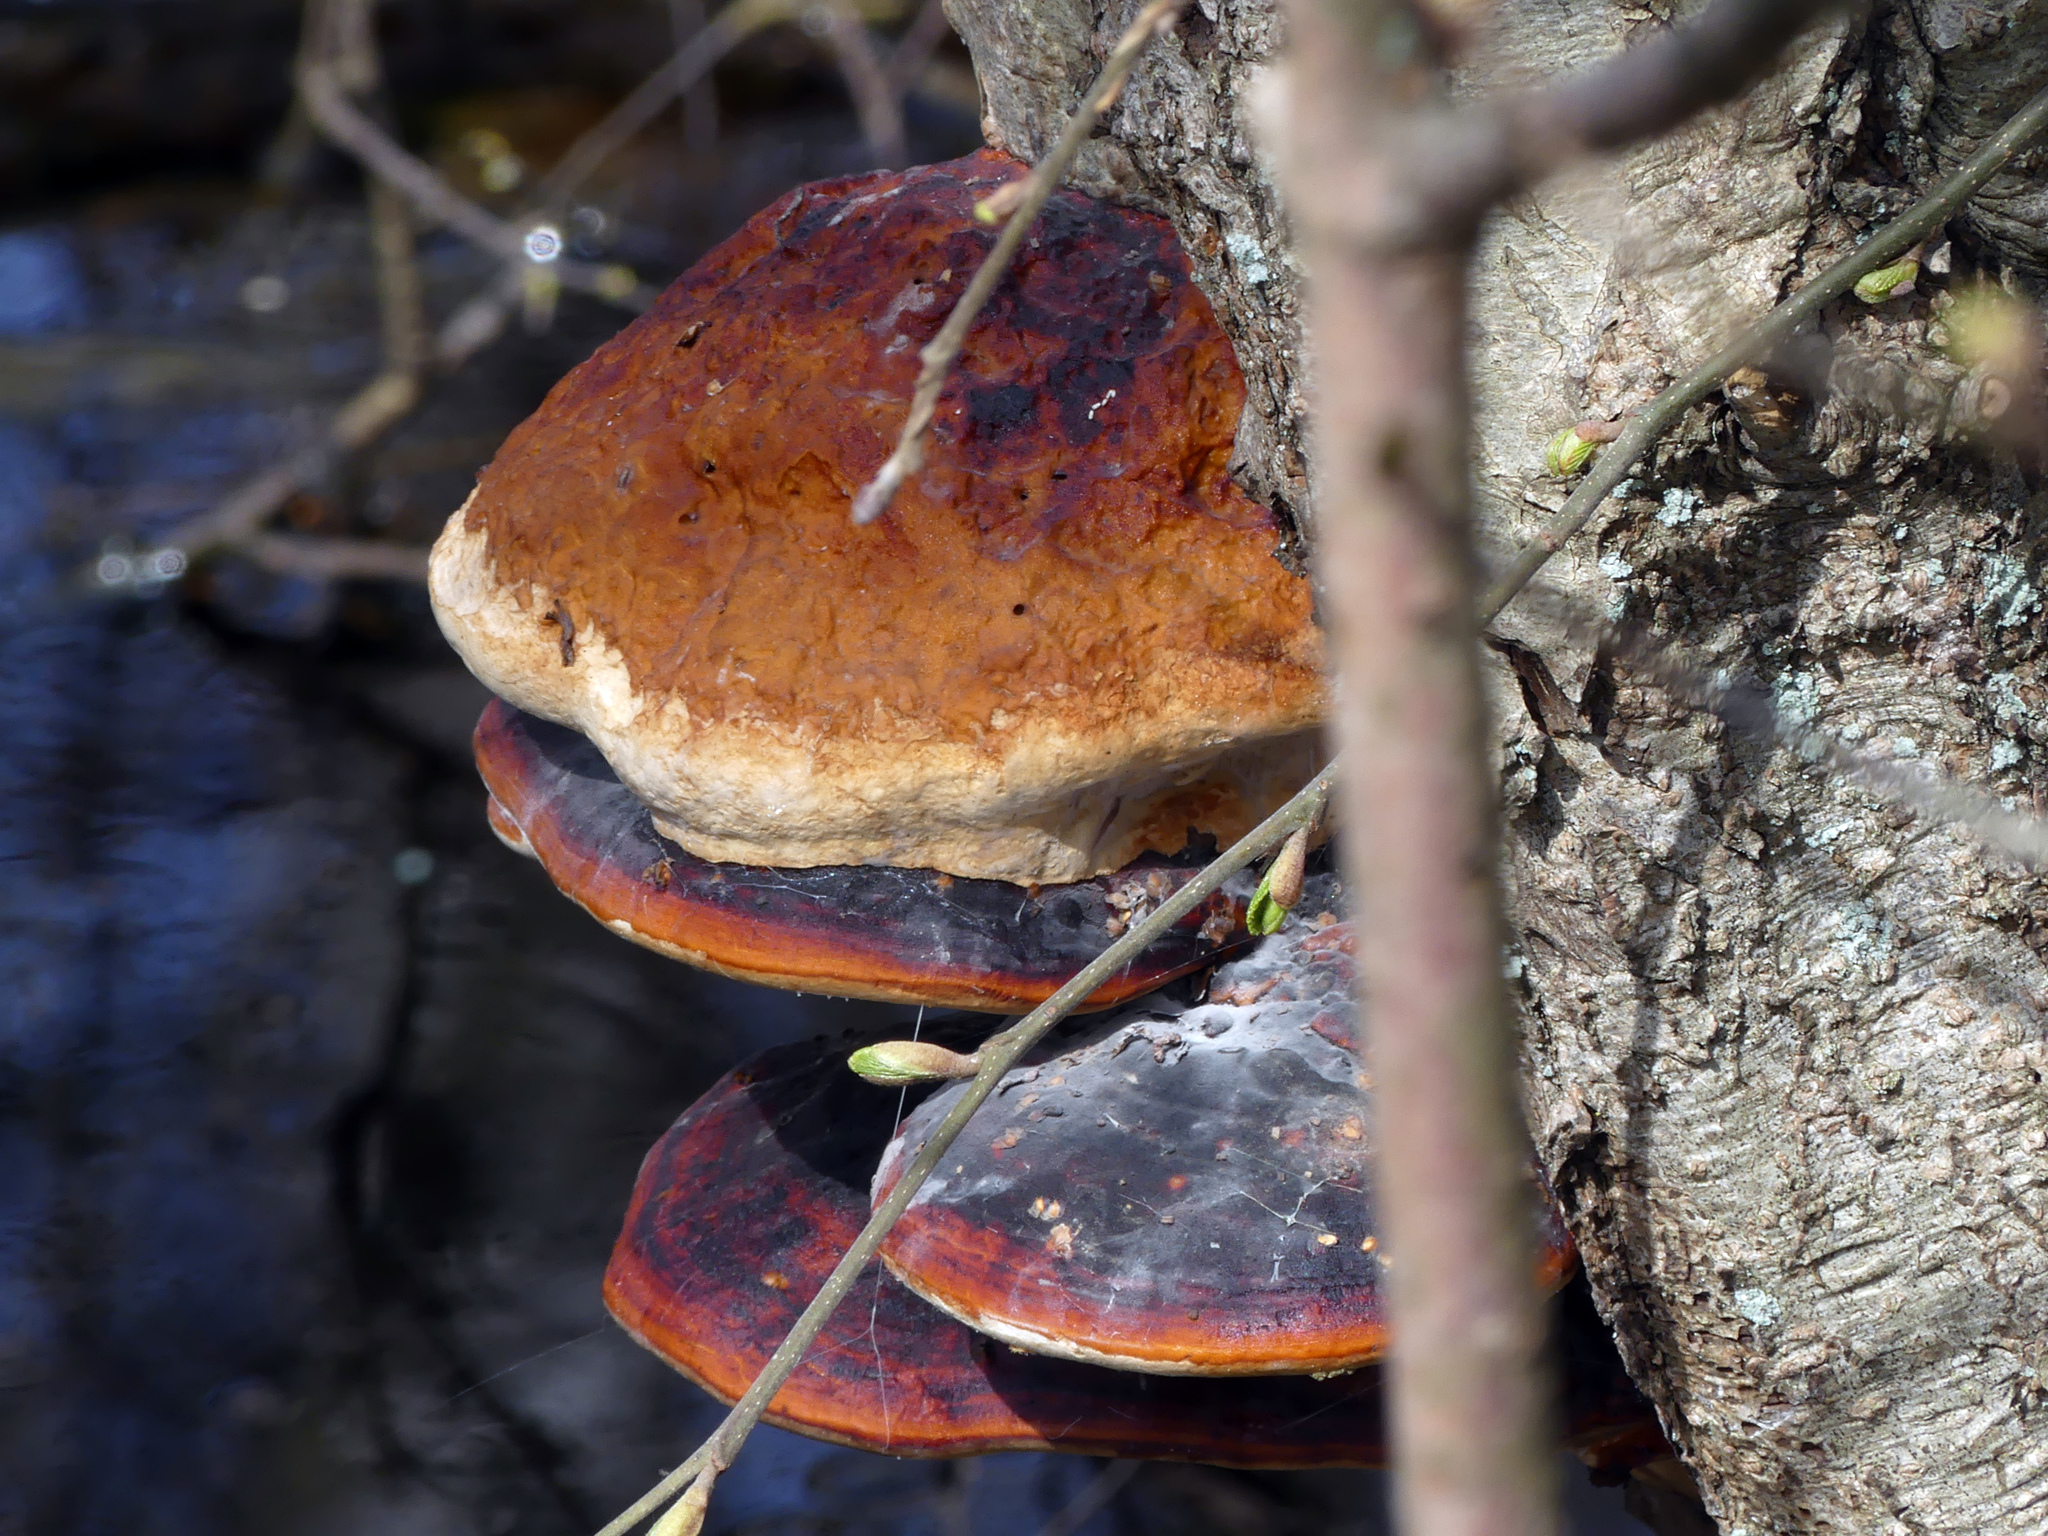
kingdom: Fungi
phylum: Basidiomycota
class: Agaricomycetes
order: Polyporales
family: Fomitopsidaceae
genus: Fomitopsis
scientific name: Fomitopsis pinicola
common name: Red-belted bracket
